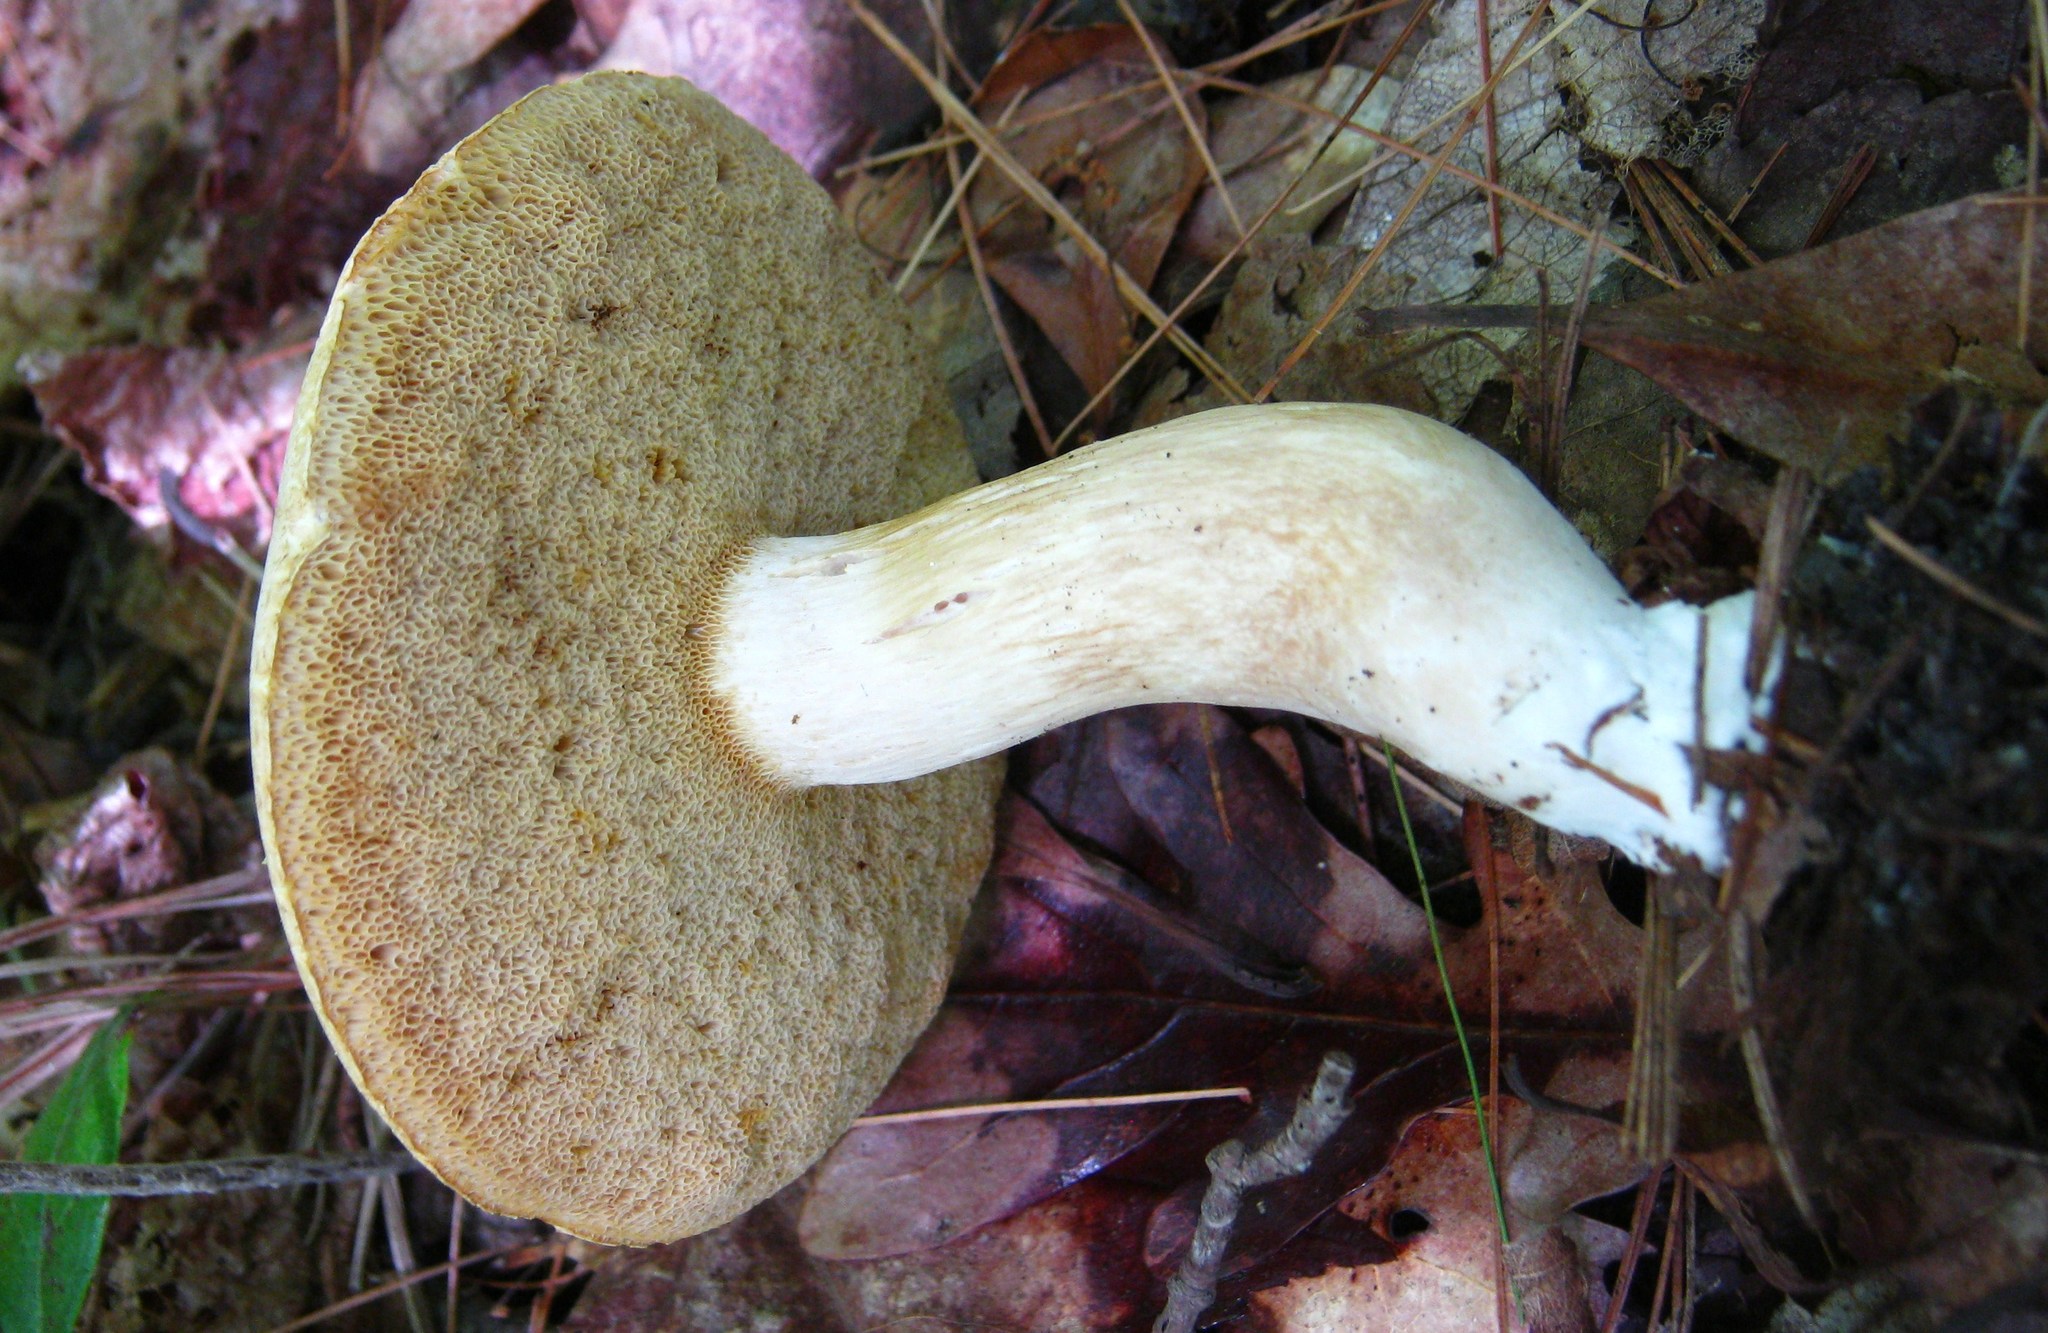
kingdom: Fungi
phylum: Basidiomycota
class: Agaricomycetes
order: Boletales
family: Boletaceae
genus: Xanthoconium
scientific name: Xanthoconium affine
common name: Spotted bolete
